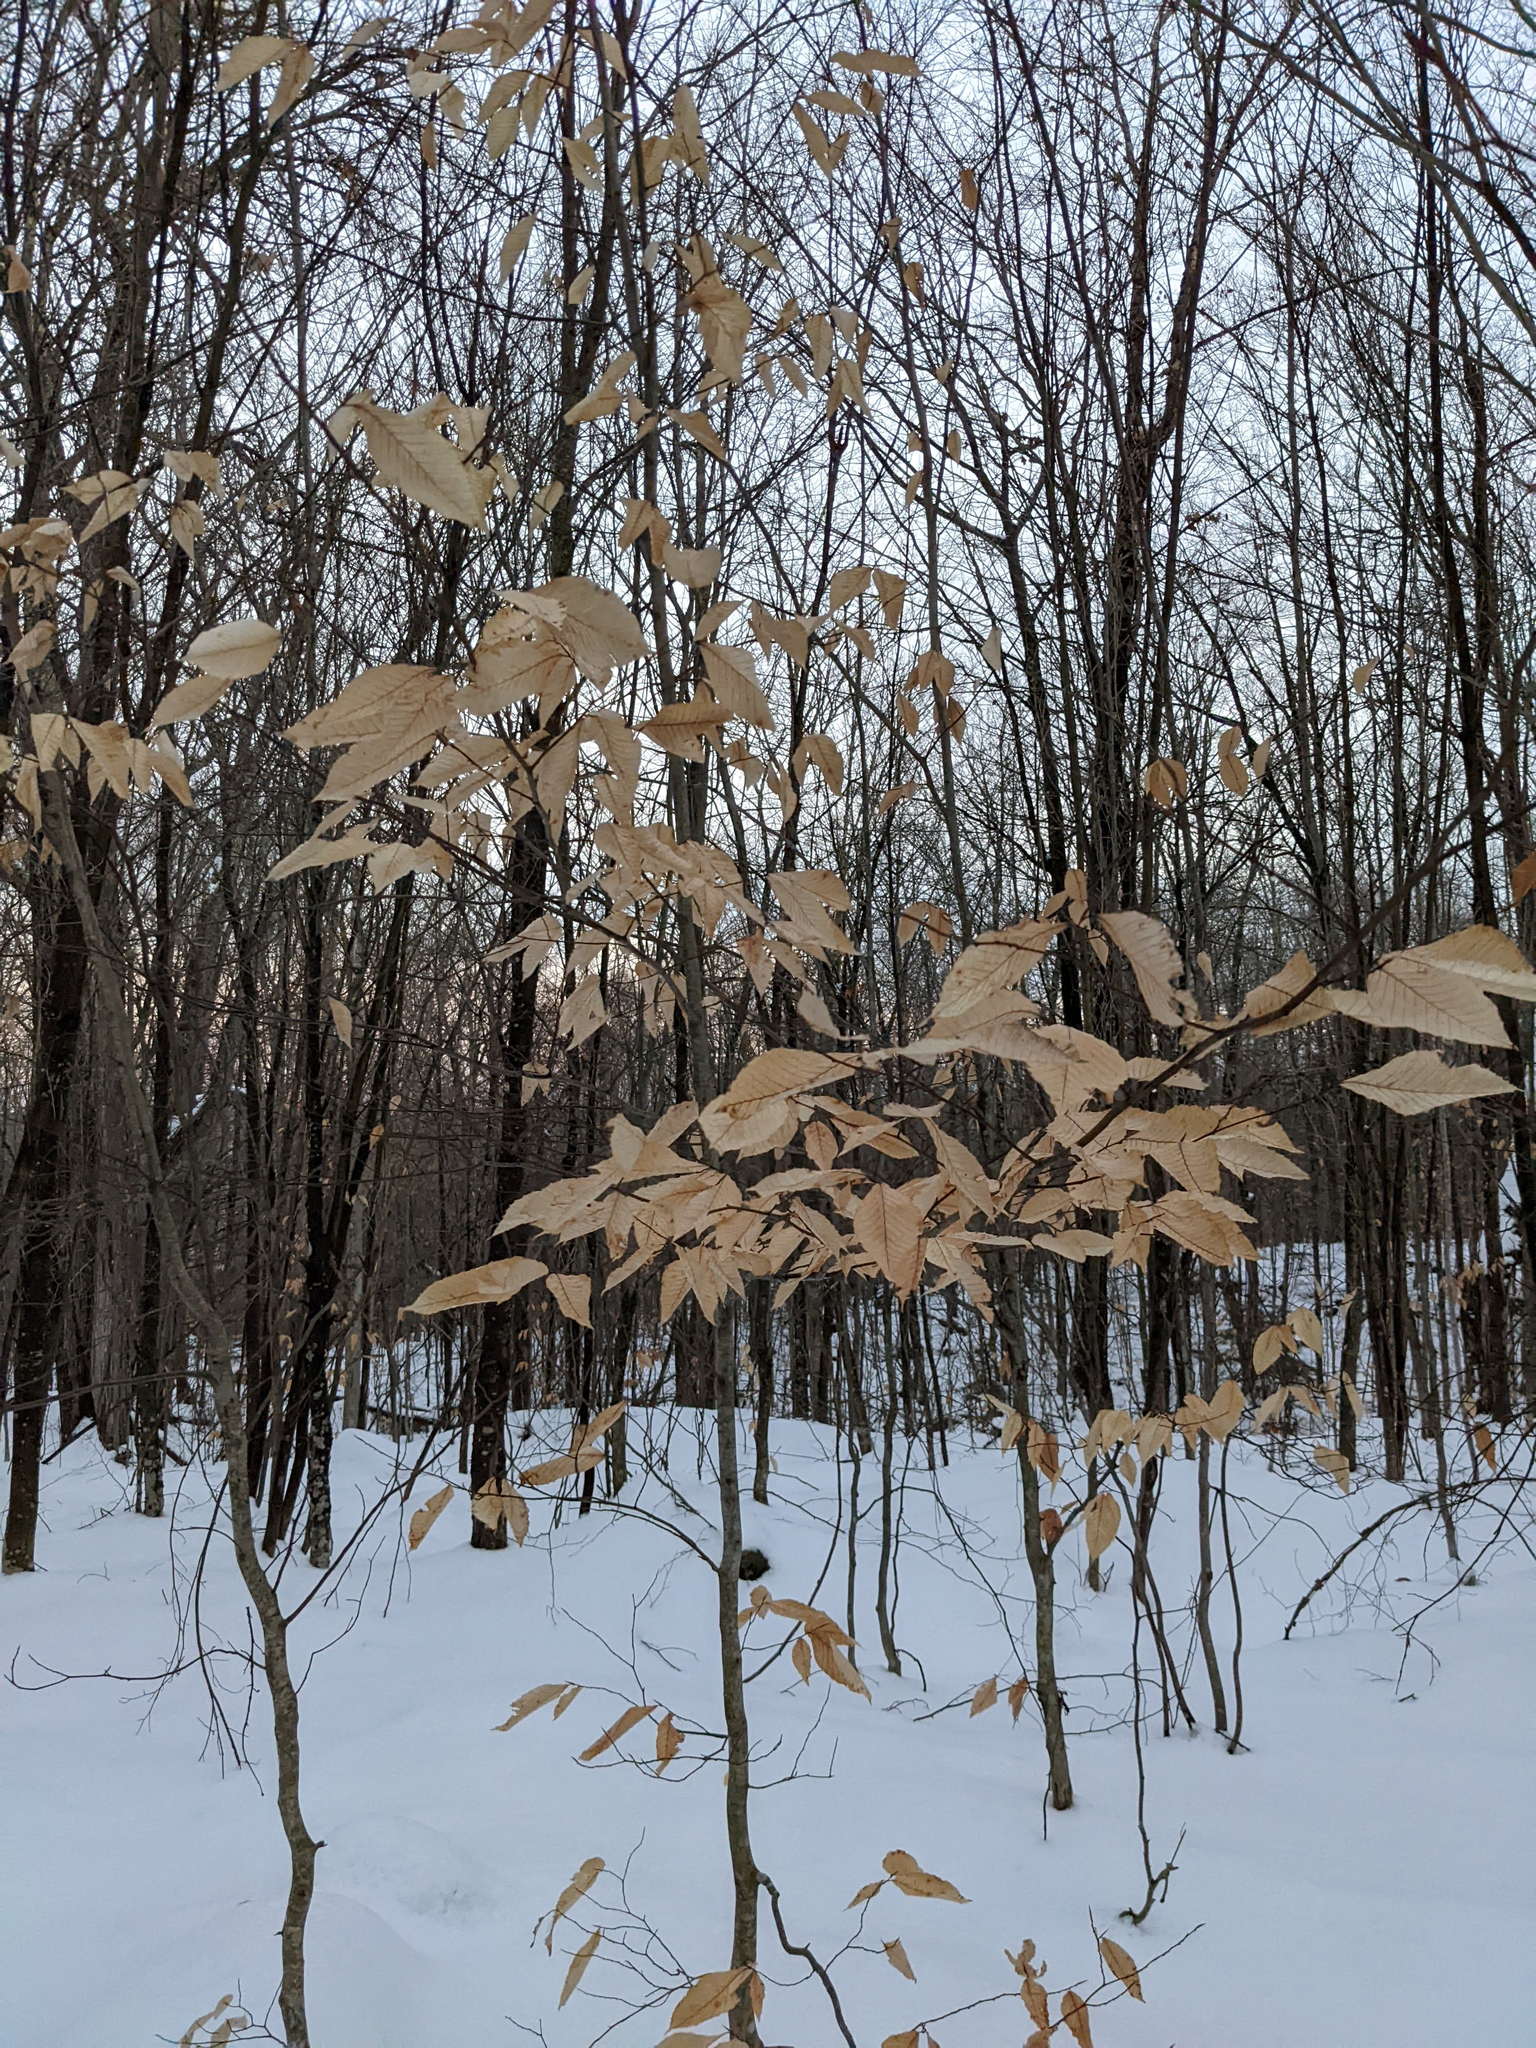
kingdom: Plantae
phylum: Tracheophyta
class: Magnoliopsida
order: Fagales
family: Fagaceae
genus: Fagus
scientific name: Fagus grandifolia
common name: American beech
